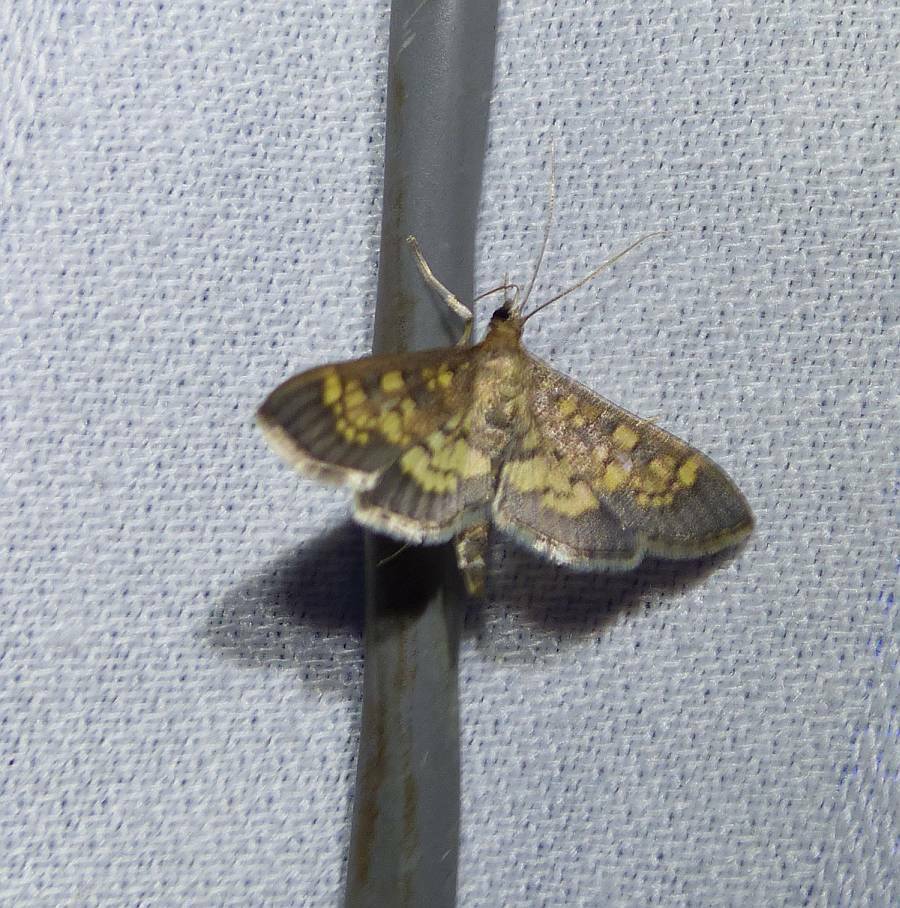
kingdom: Animalia
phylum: Arthropoda
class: Insecta
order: Lepidoptera
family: Crambidae
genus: Epipagis
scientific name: Epipagis adipaloides
